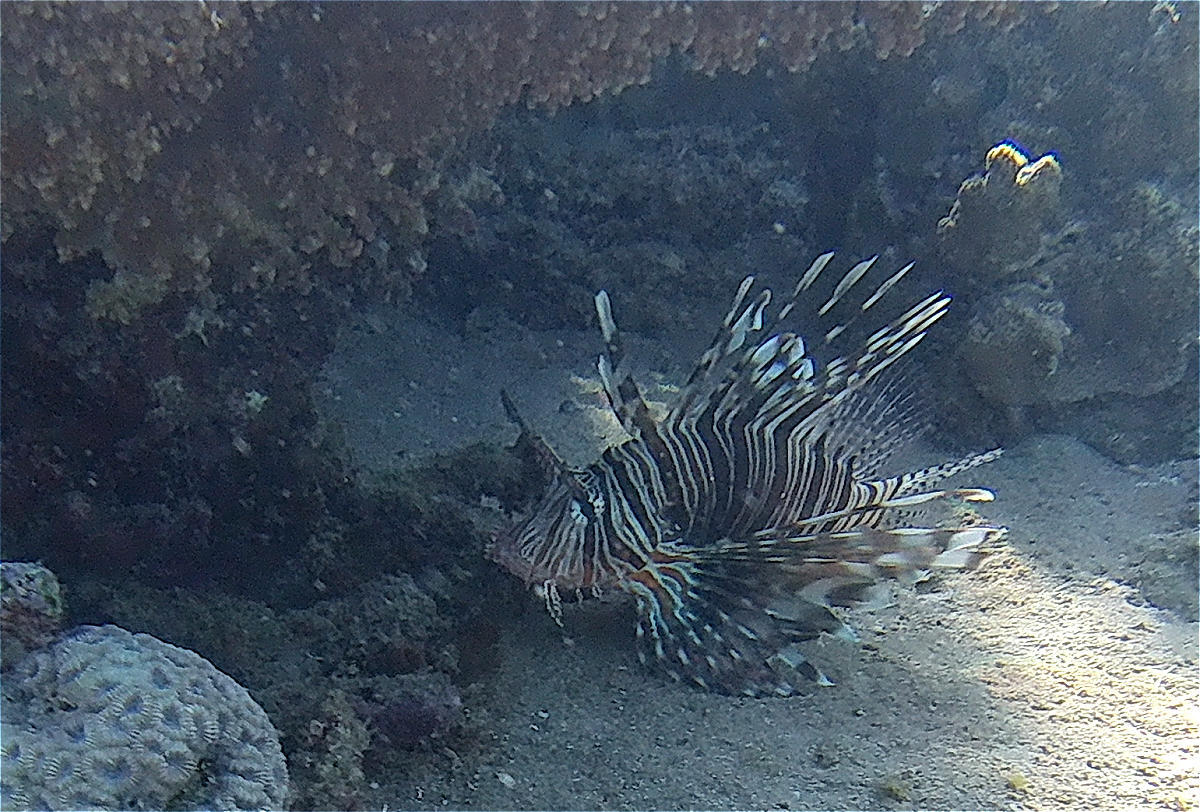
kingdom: Animalia
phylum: Chordata
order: Scorpaeniformes
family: Scorpaenidae
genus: Pterois
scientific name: Pterois miles
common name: Devil firefish
